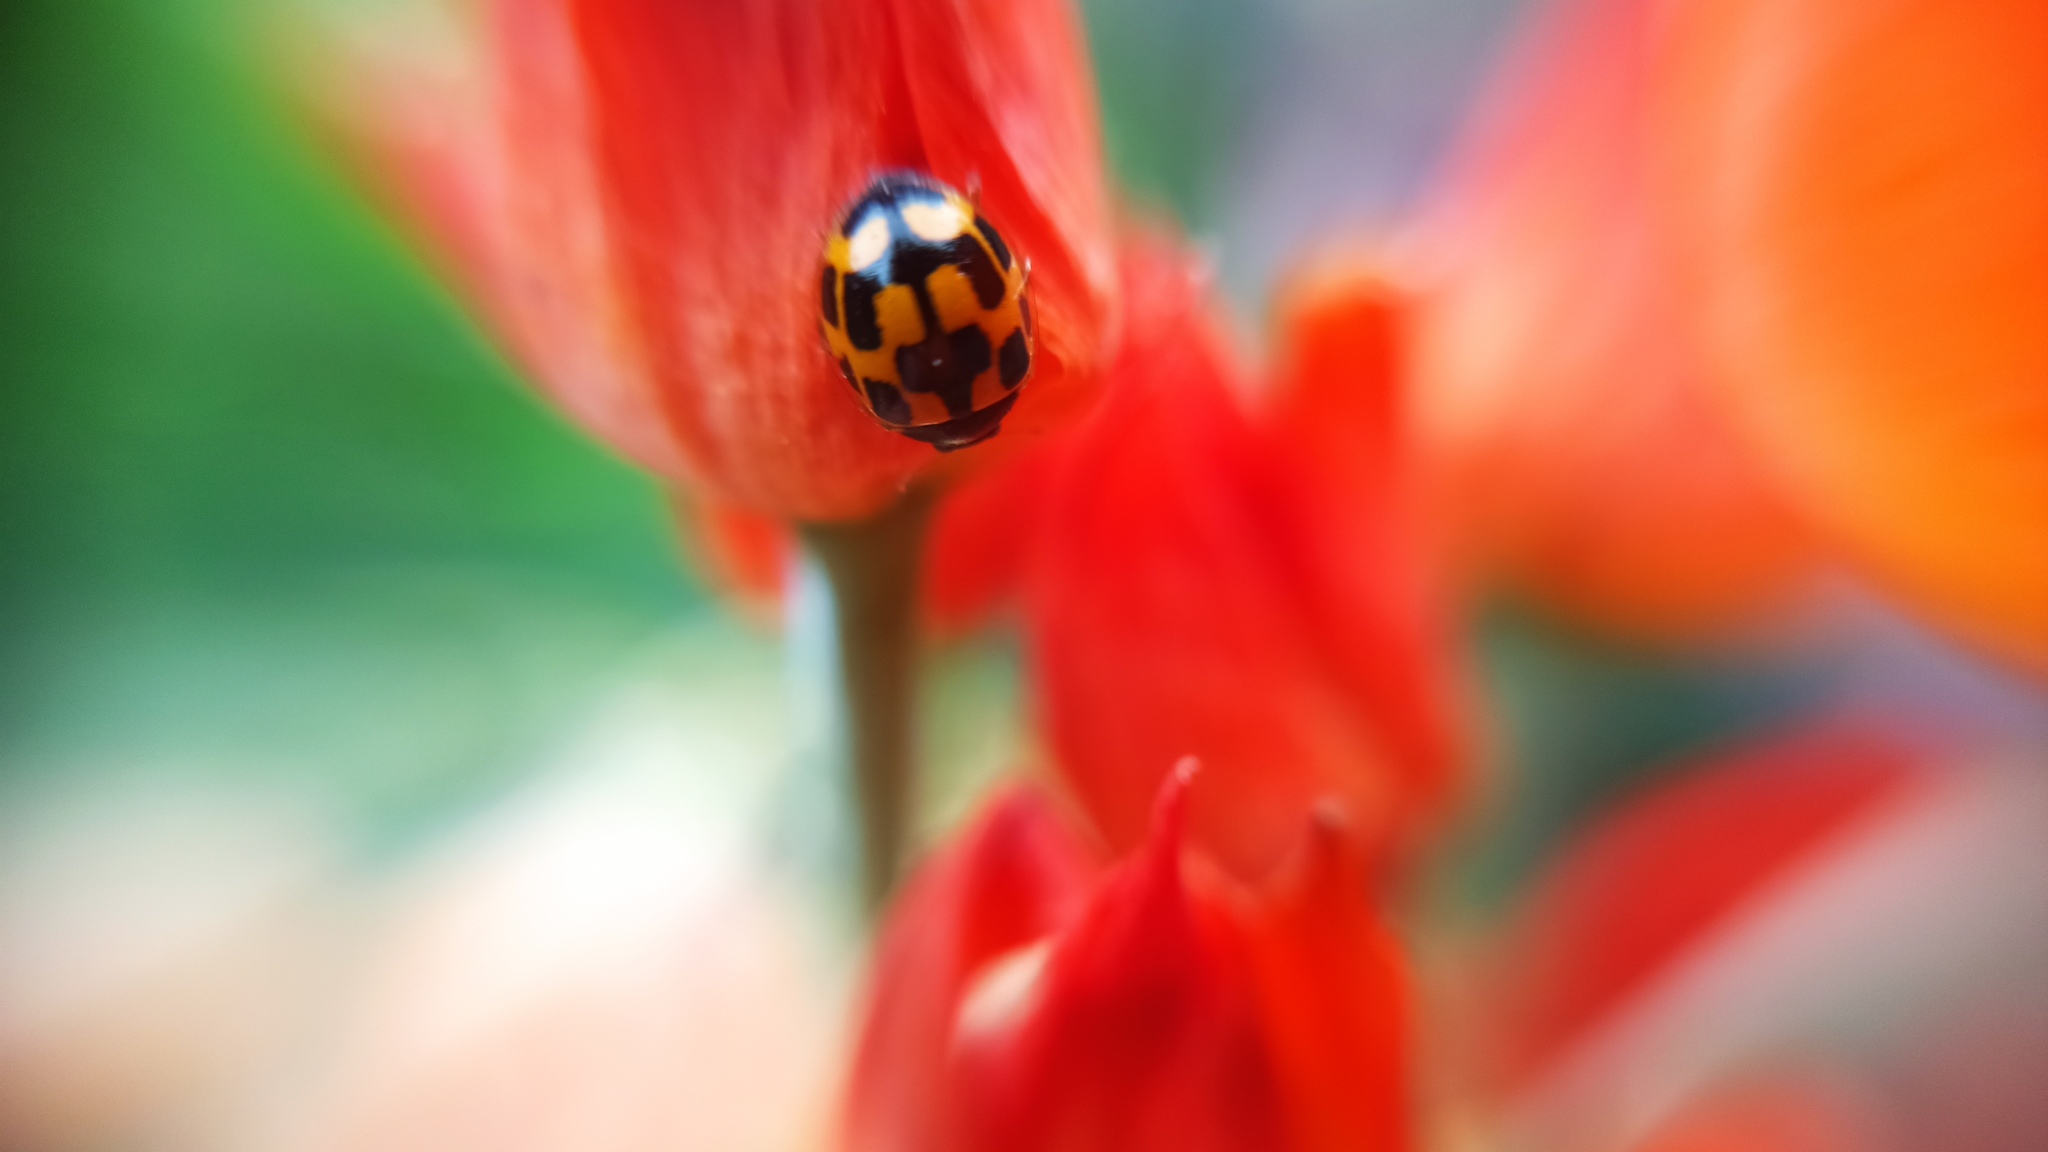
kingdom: Animalia
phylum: Arthropoda
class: Insecta
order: Coleoptera
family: Coccinellidae
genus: Propylaea
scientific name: Propylaea quatuordecimpunctata
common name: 14-spotted ladybird beetle
